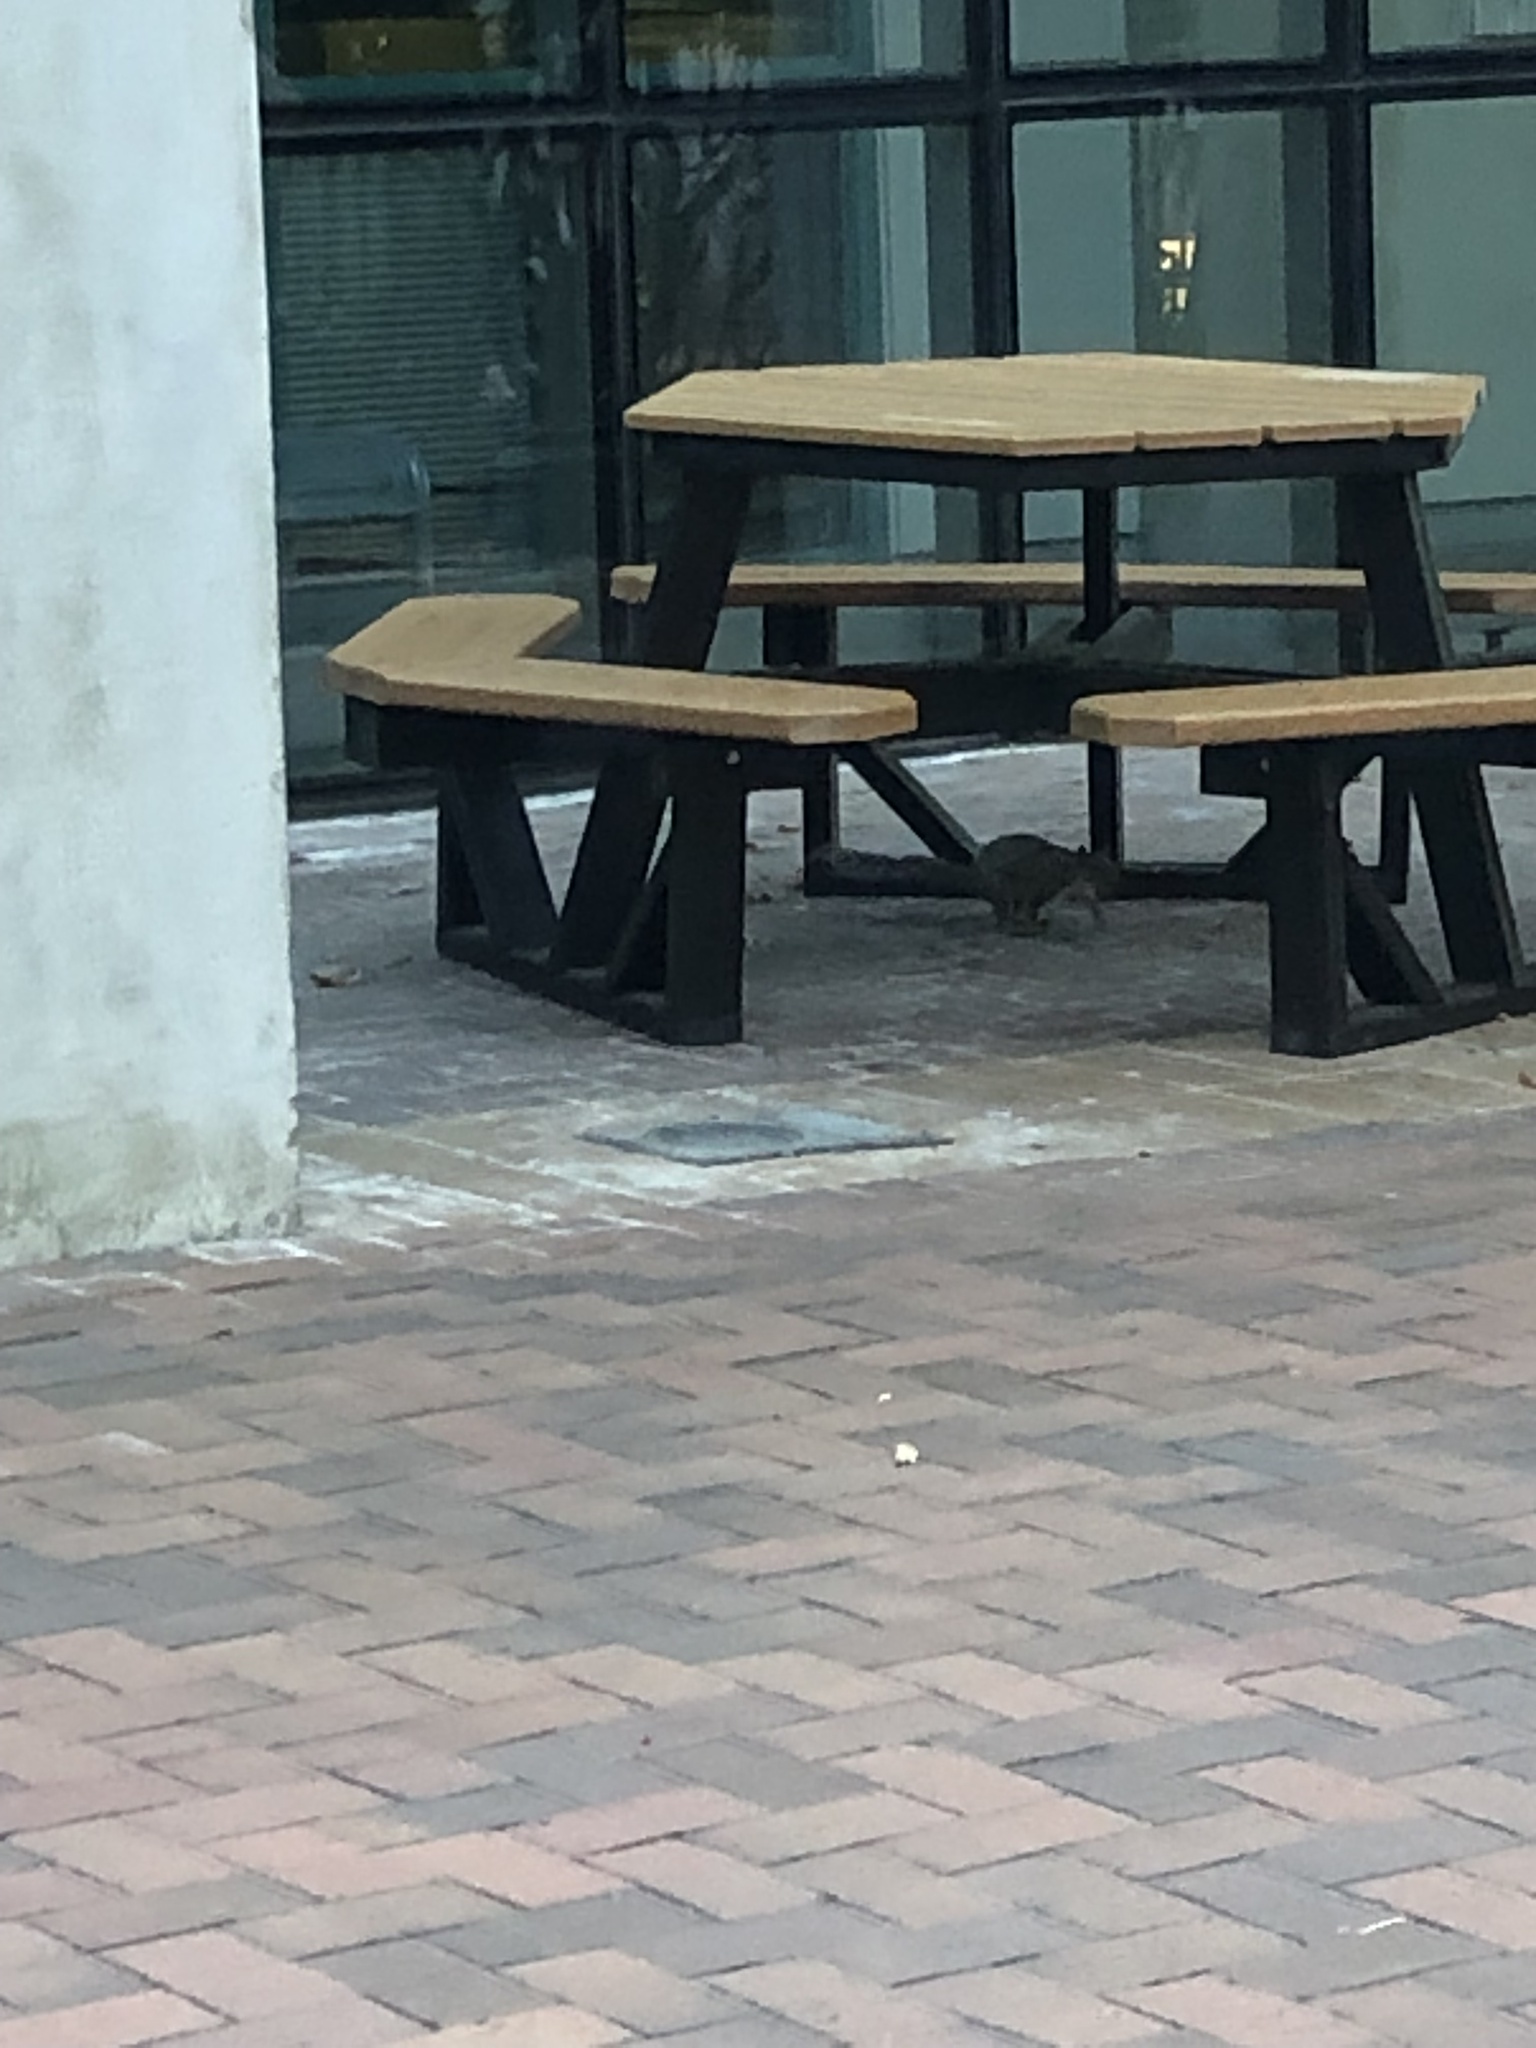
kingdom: Animalia
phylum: Chordata
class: Mammalia
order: Rodentia
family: Sciuridae
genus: Sciurus
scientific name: Sciurus carolinensis
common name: Eastern gray squirrel
